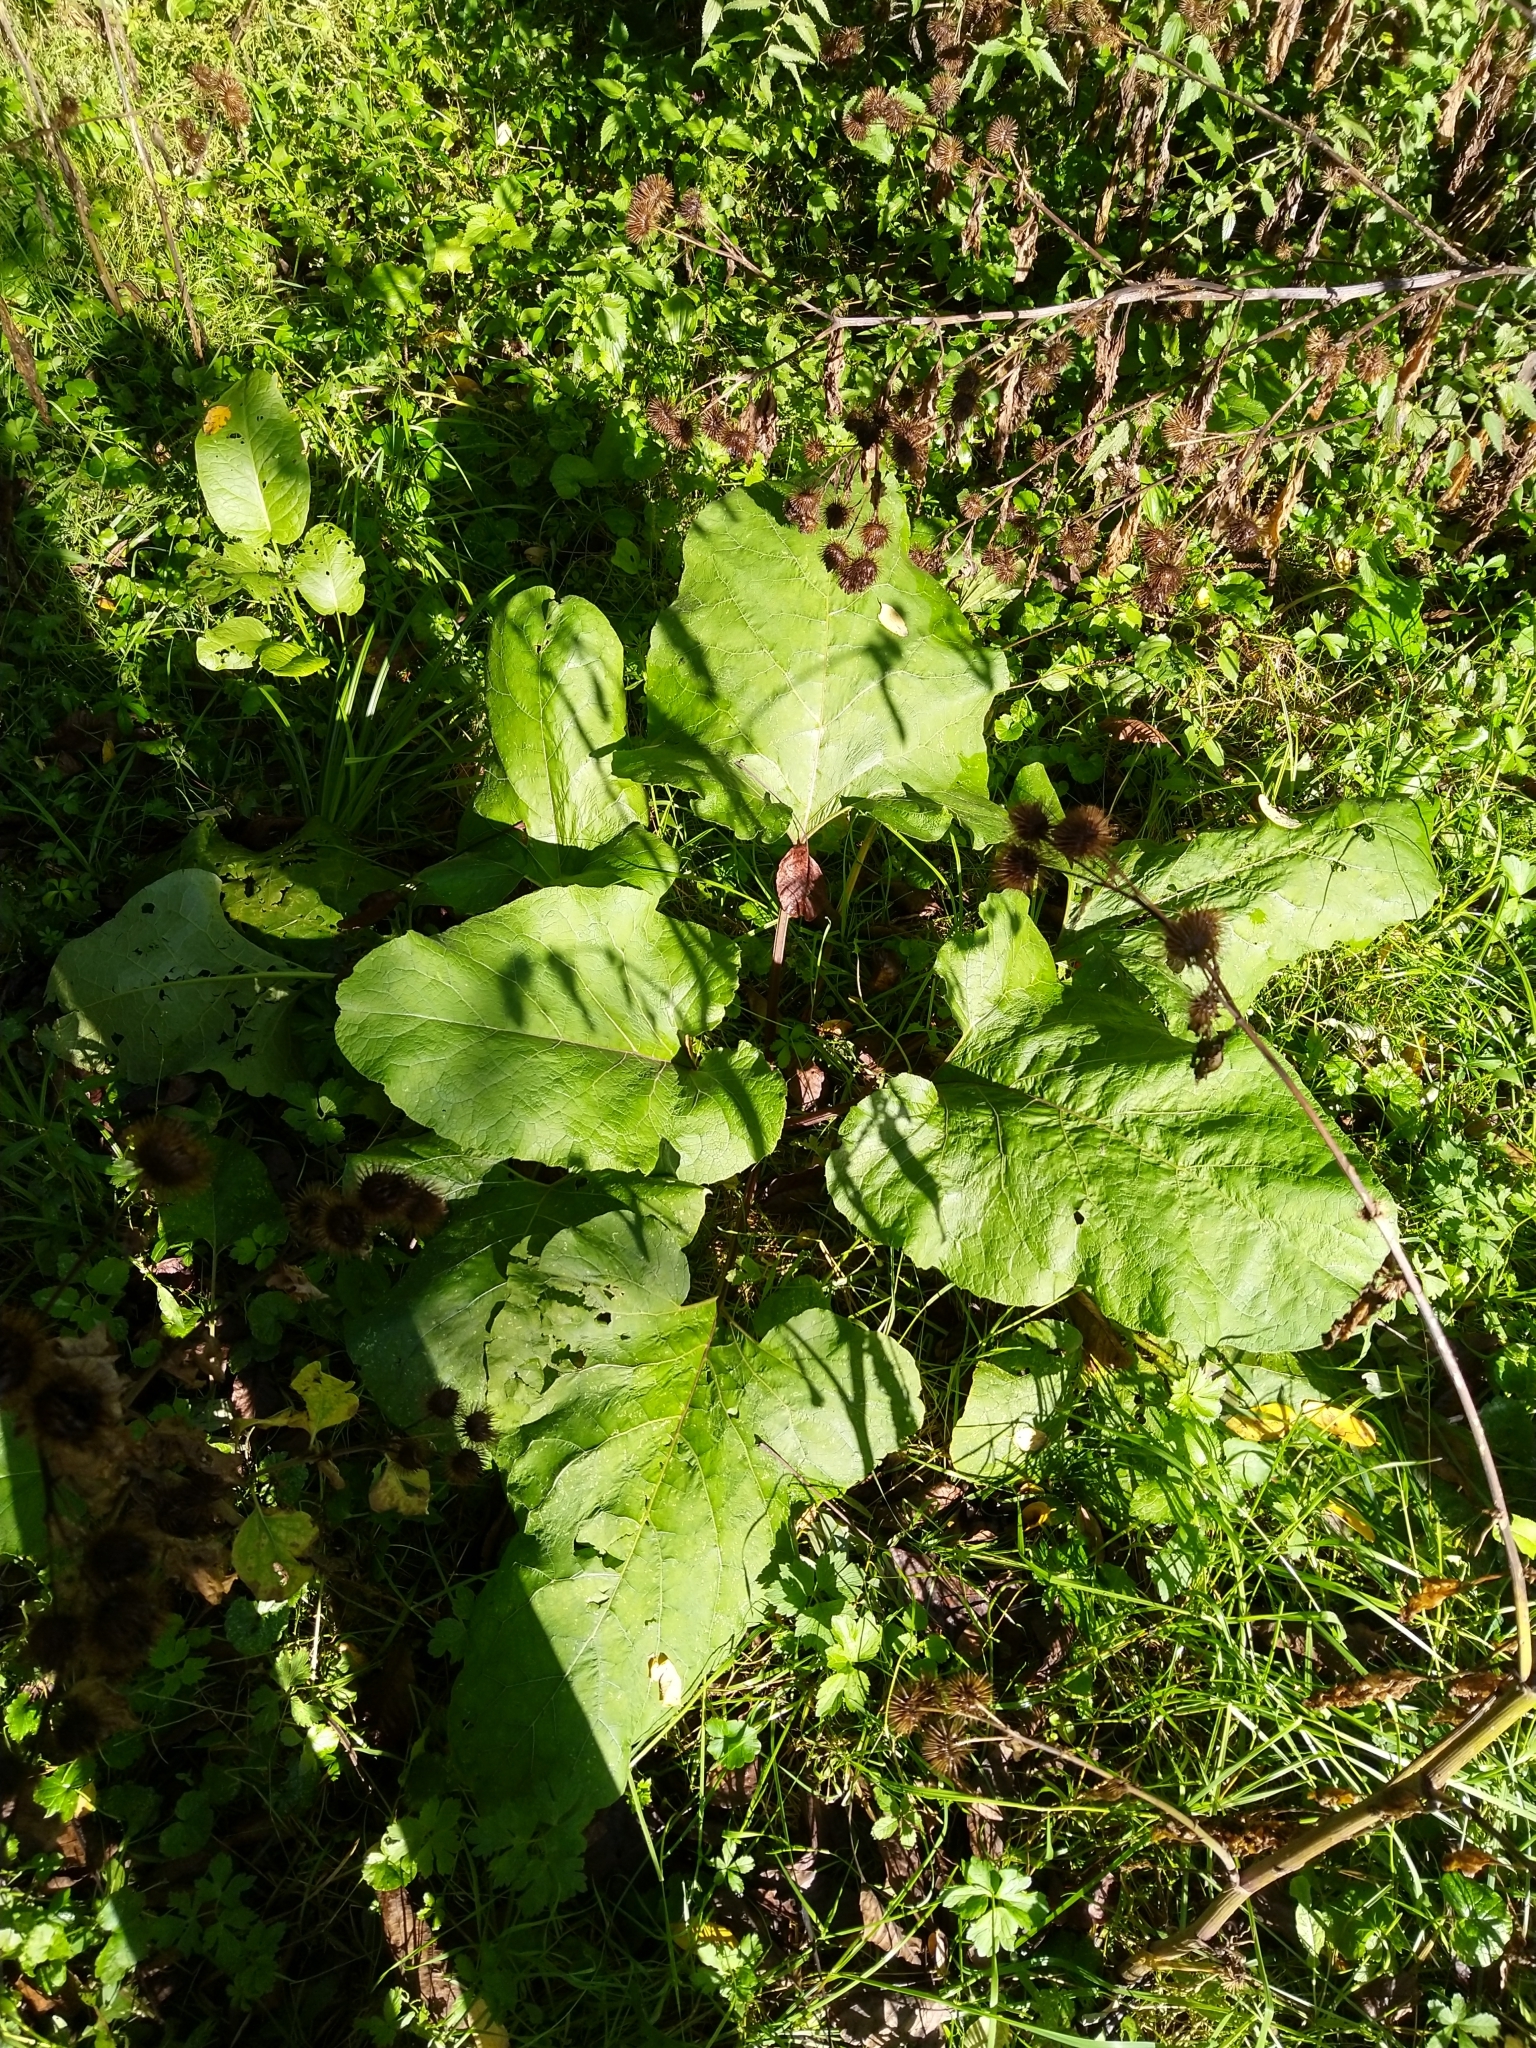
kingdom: Plantae
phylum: Tracheophyta
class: Magnoliopsida
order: Asterales
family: Asteraceae
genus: Arctium
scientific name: Arctium lappa
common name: Greater burdock
